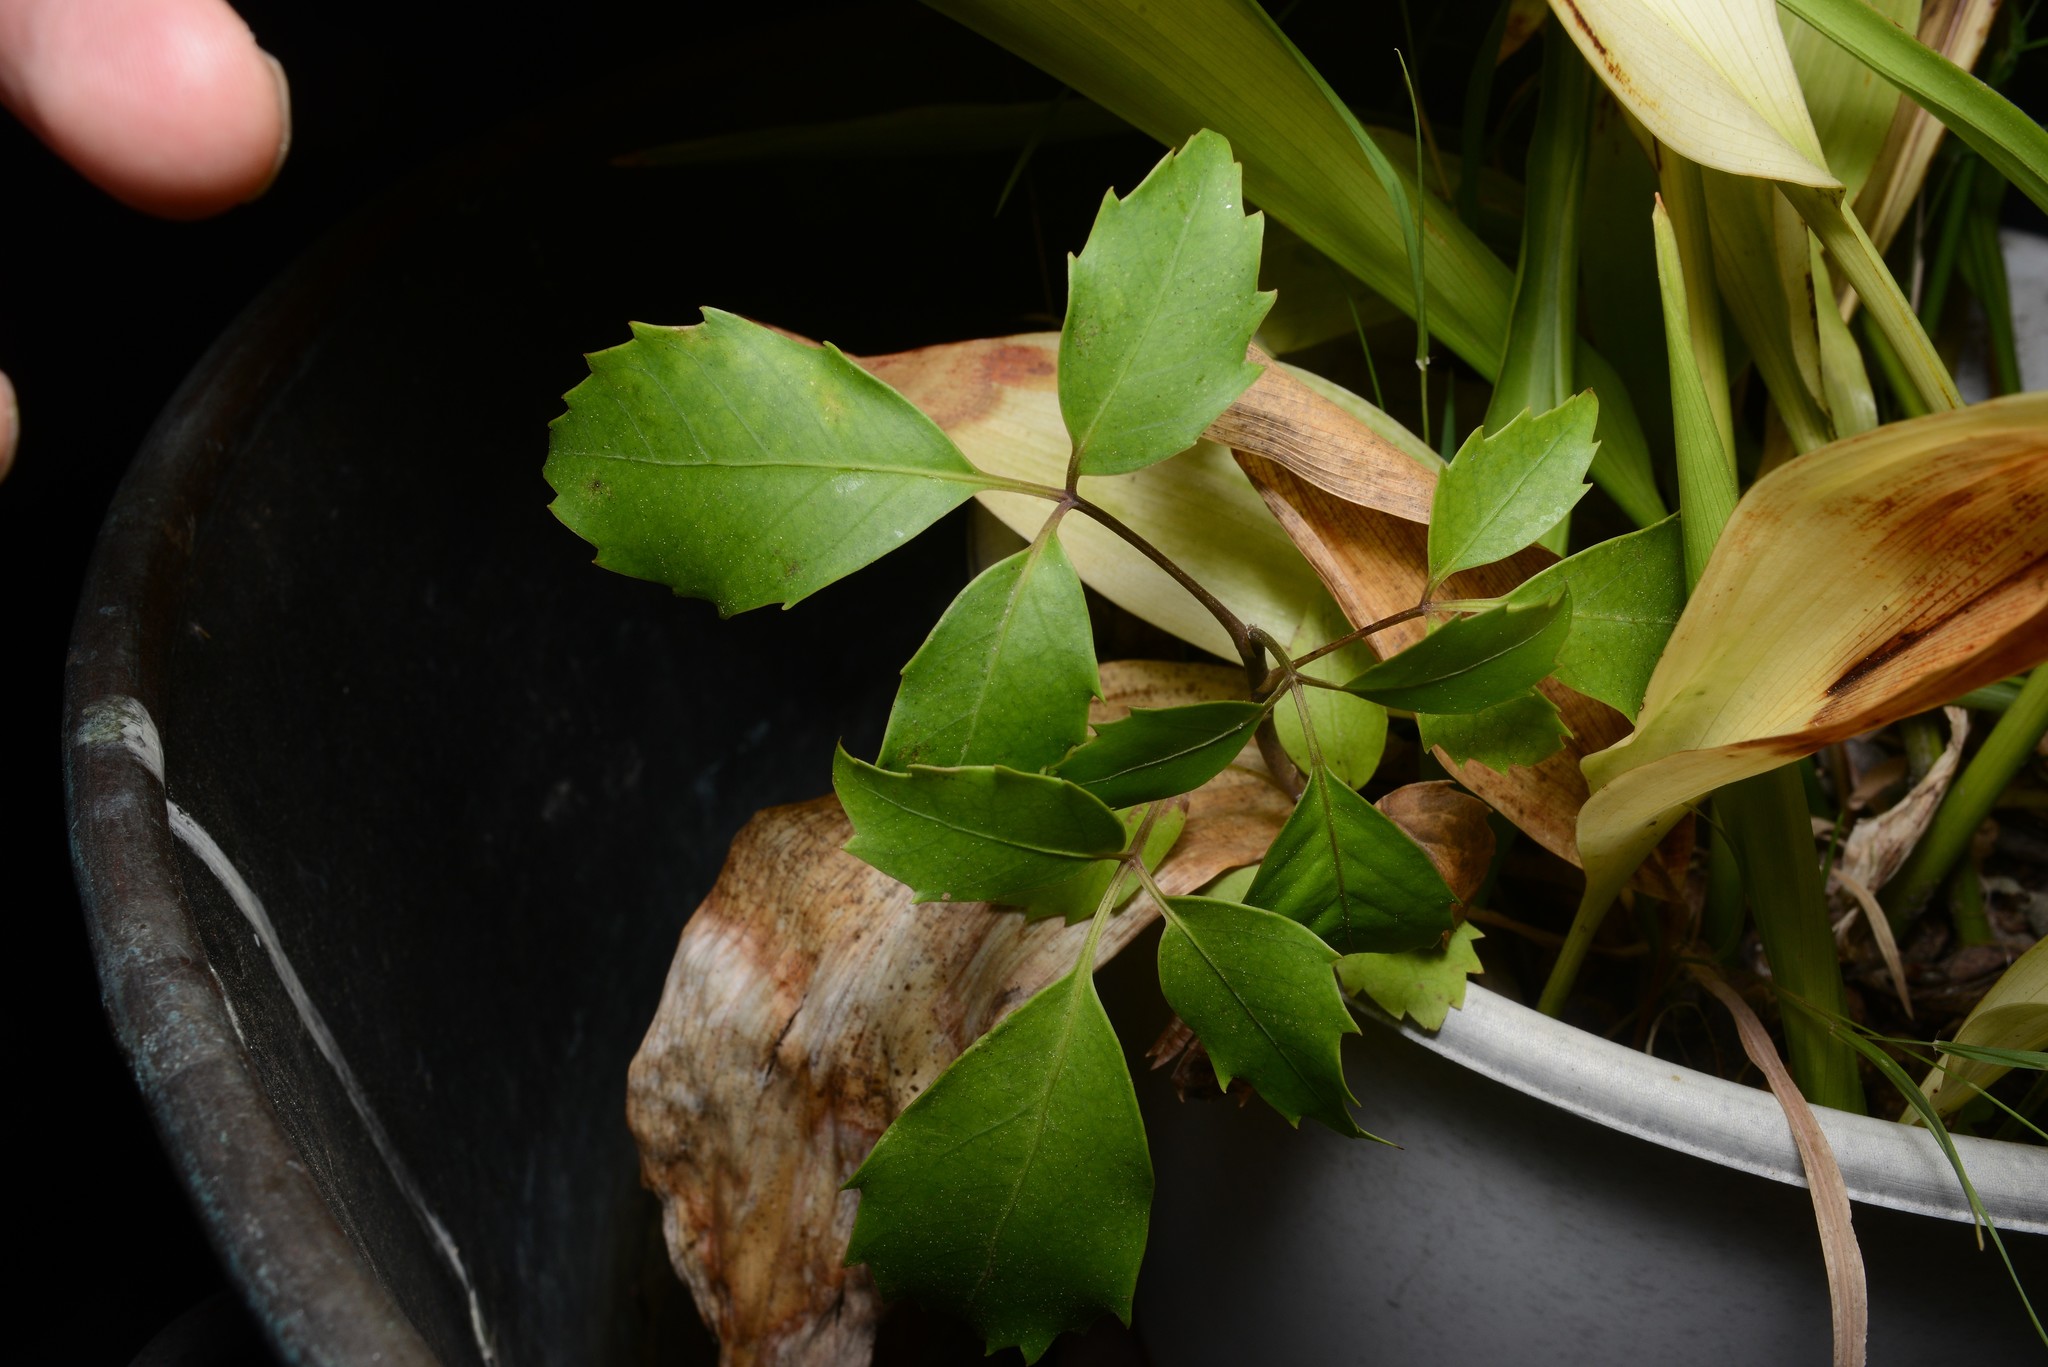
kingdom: Plantae
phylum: Tracheophyta
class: Magnoliopsida
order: Apiales
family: Araliaceae
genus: Neopanax
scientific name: Neopanax arboreus
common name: Five-fingers
